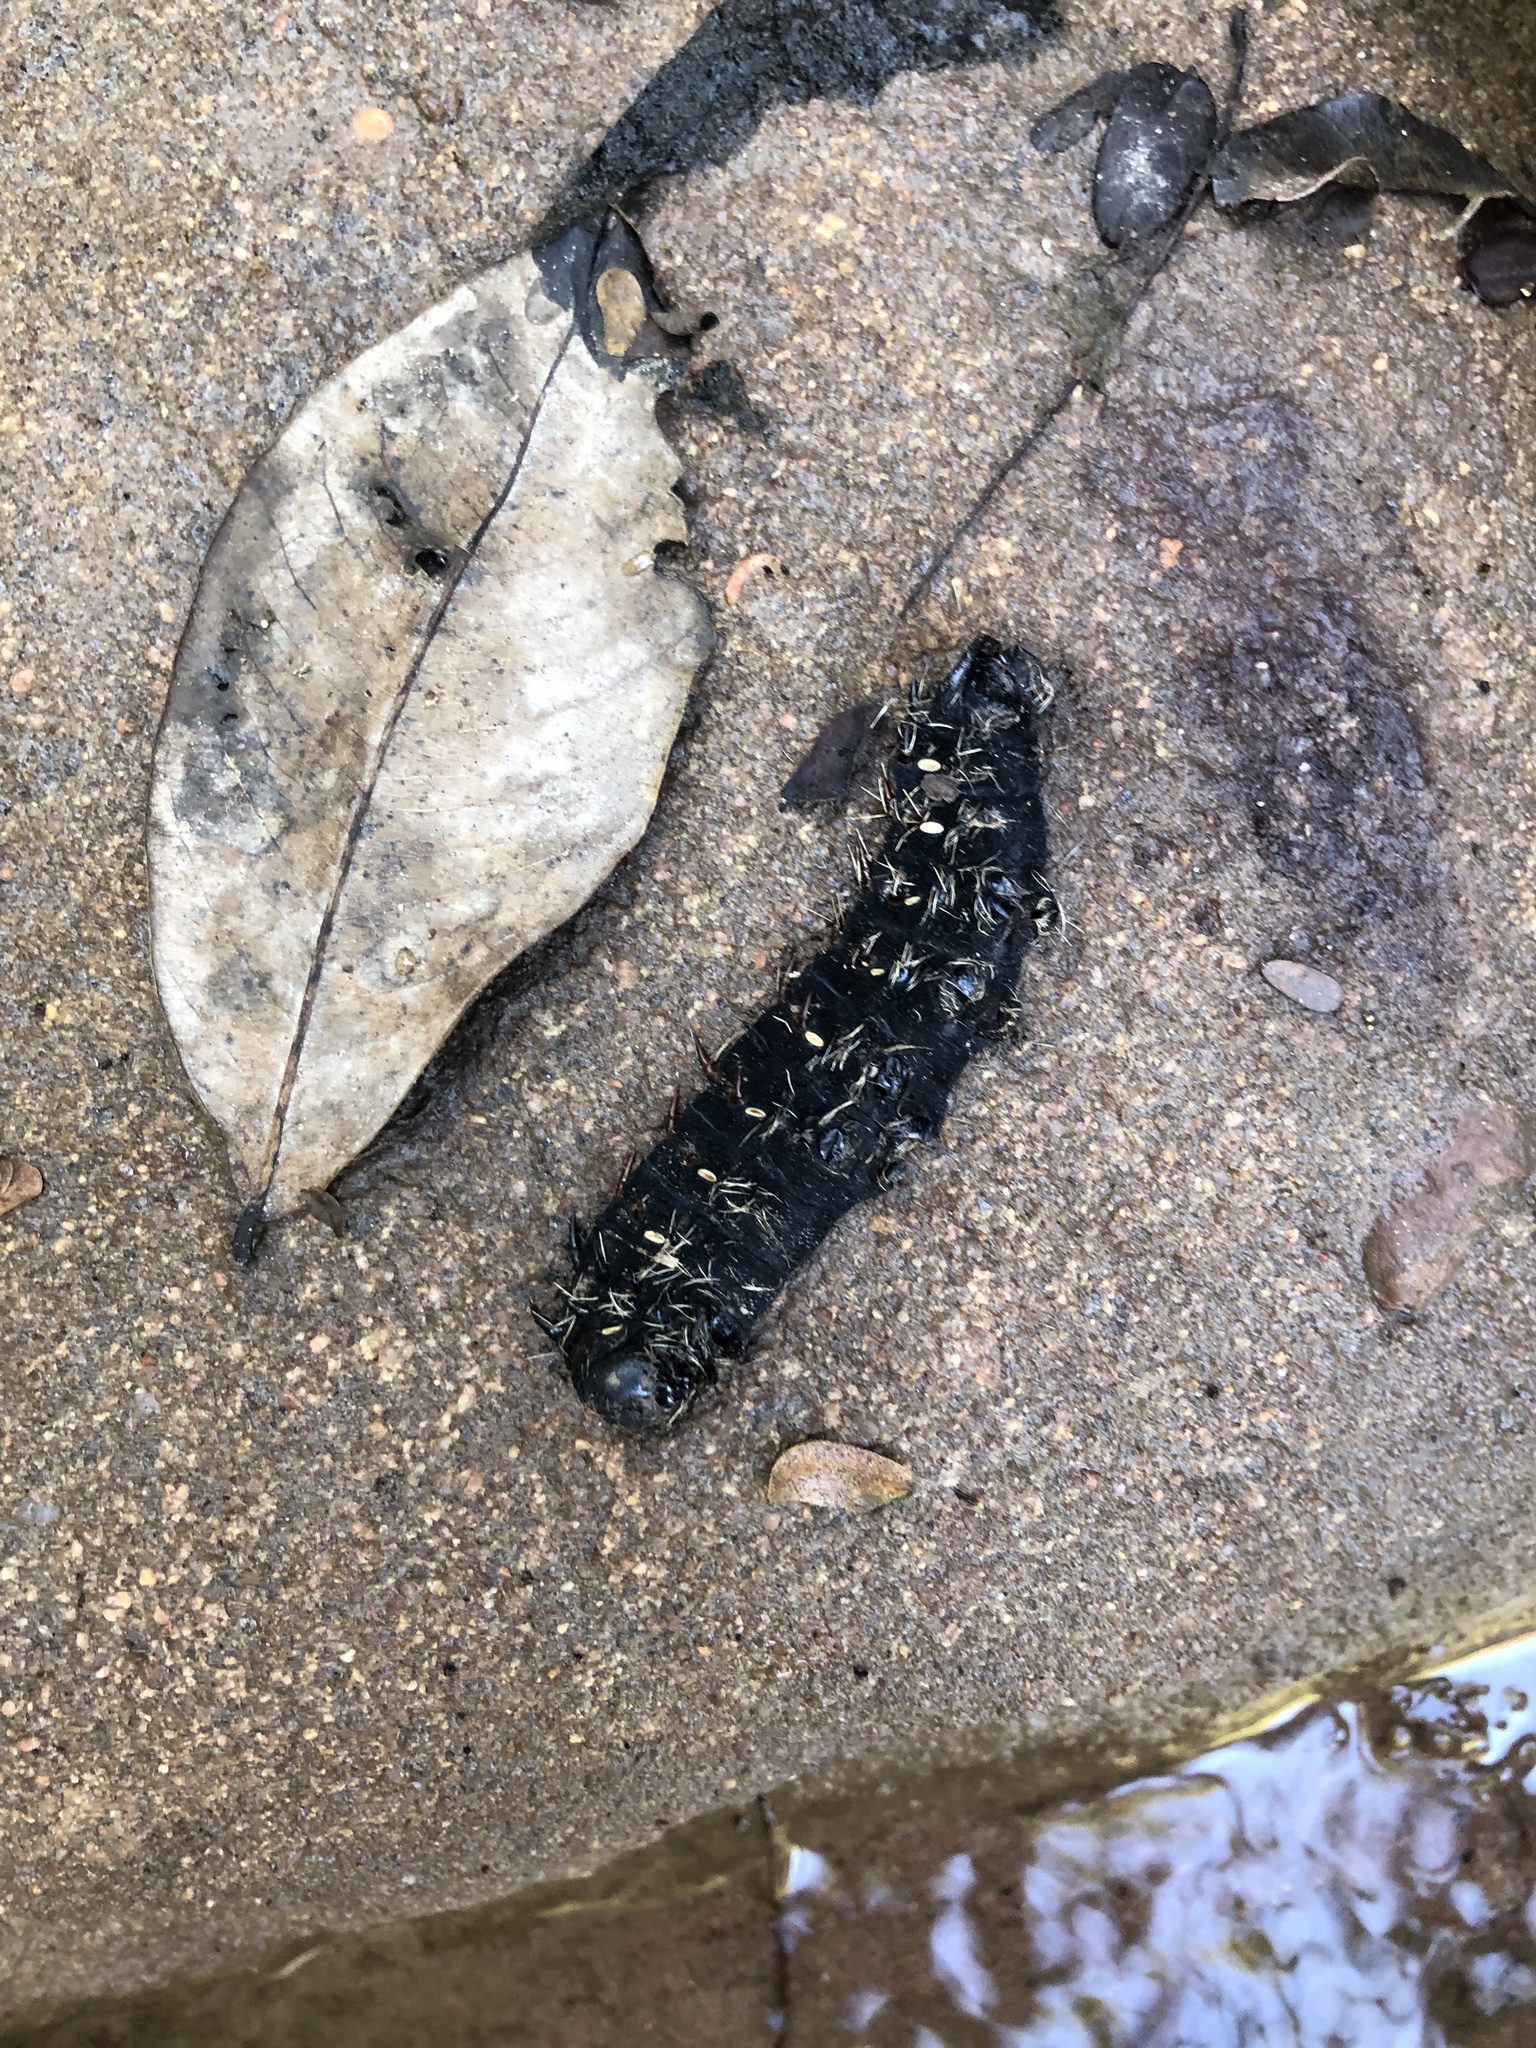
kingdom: Animalia
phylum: Arthropoda
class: Insecta
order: Lepidoptera
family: Saturniidae
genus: Nudaurelia
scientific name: Nudaurelia wahlbergi
